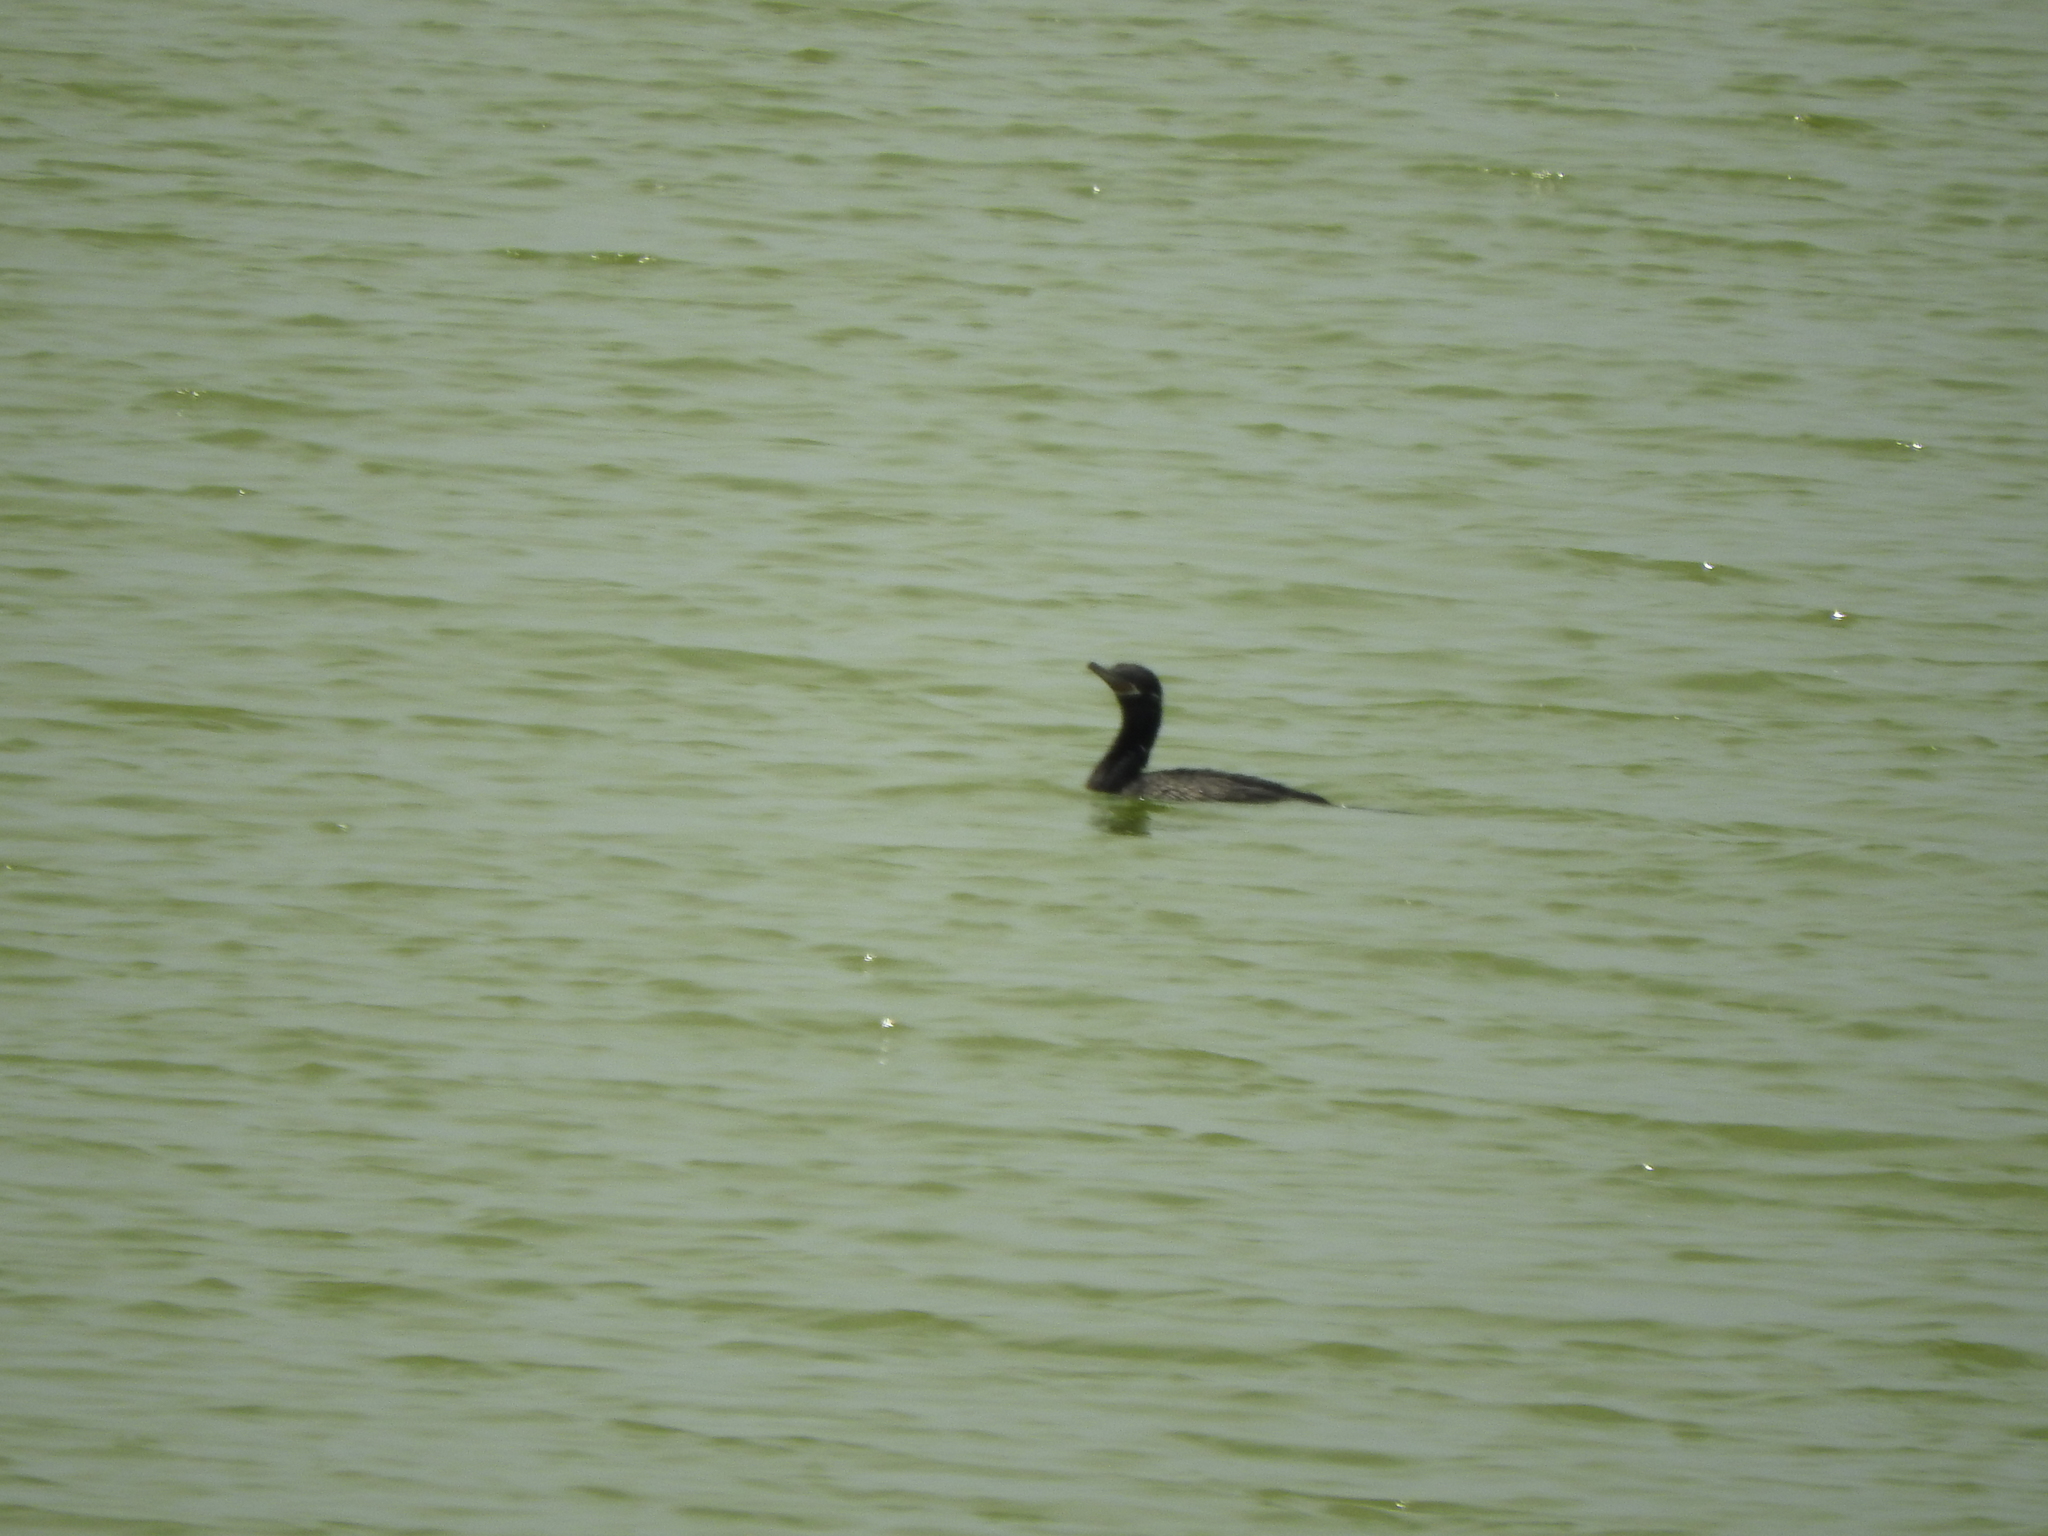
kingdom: Animalia
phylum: Chordata
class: Aves
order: Suliformes
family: Phalacrocoracidae
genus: Phalacrocorax
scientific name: Phalacrocorax brasilianus
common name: Neotropic cormorant
